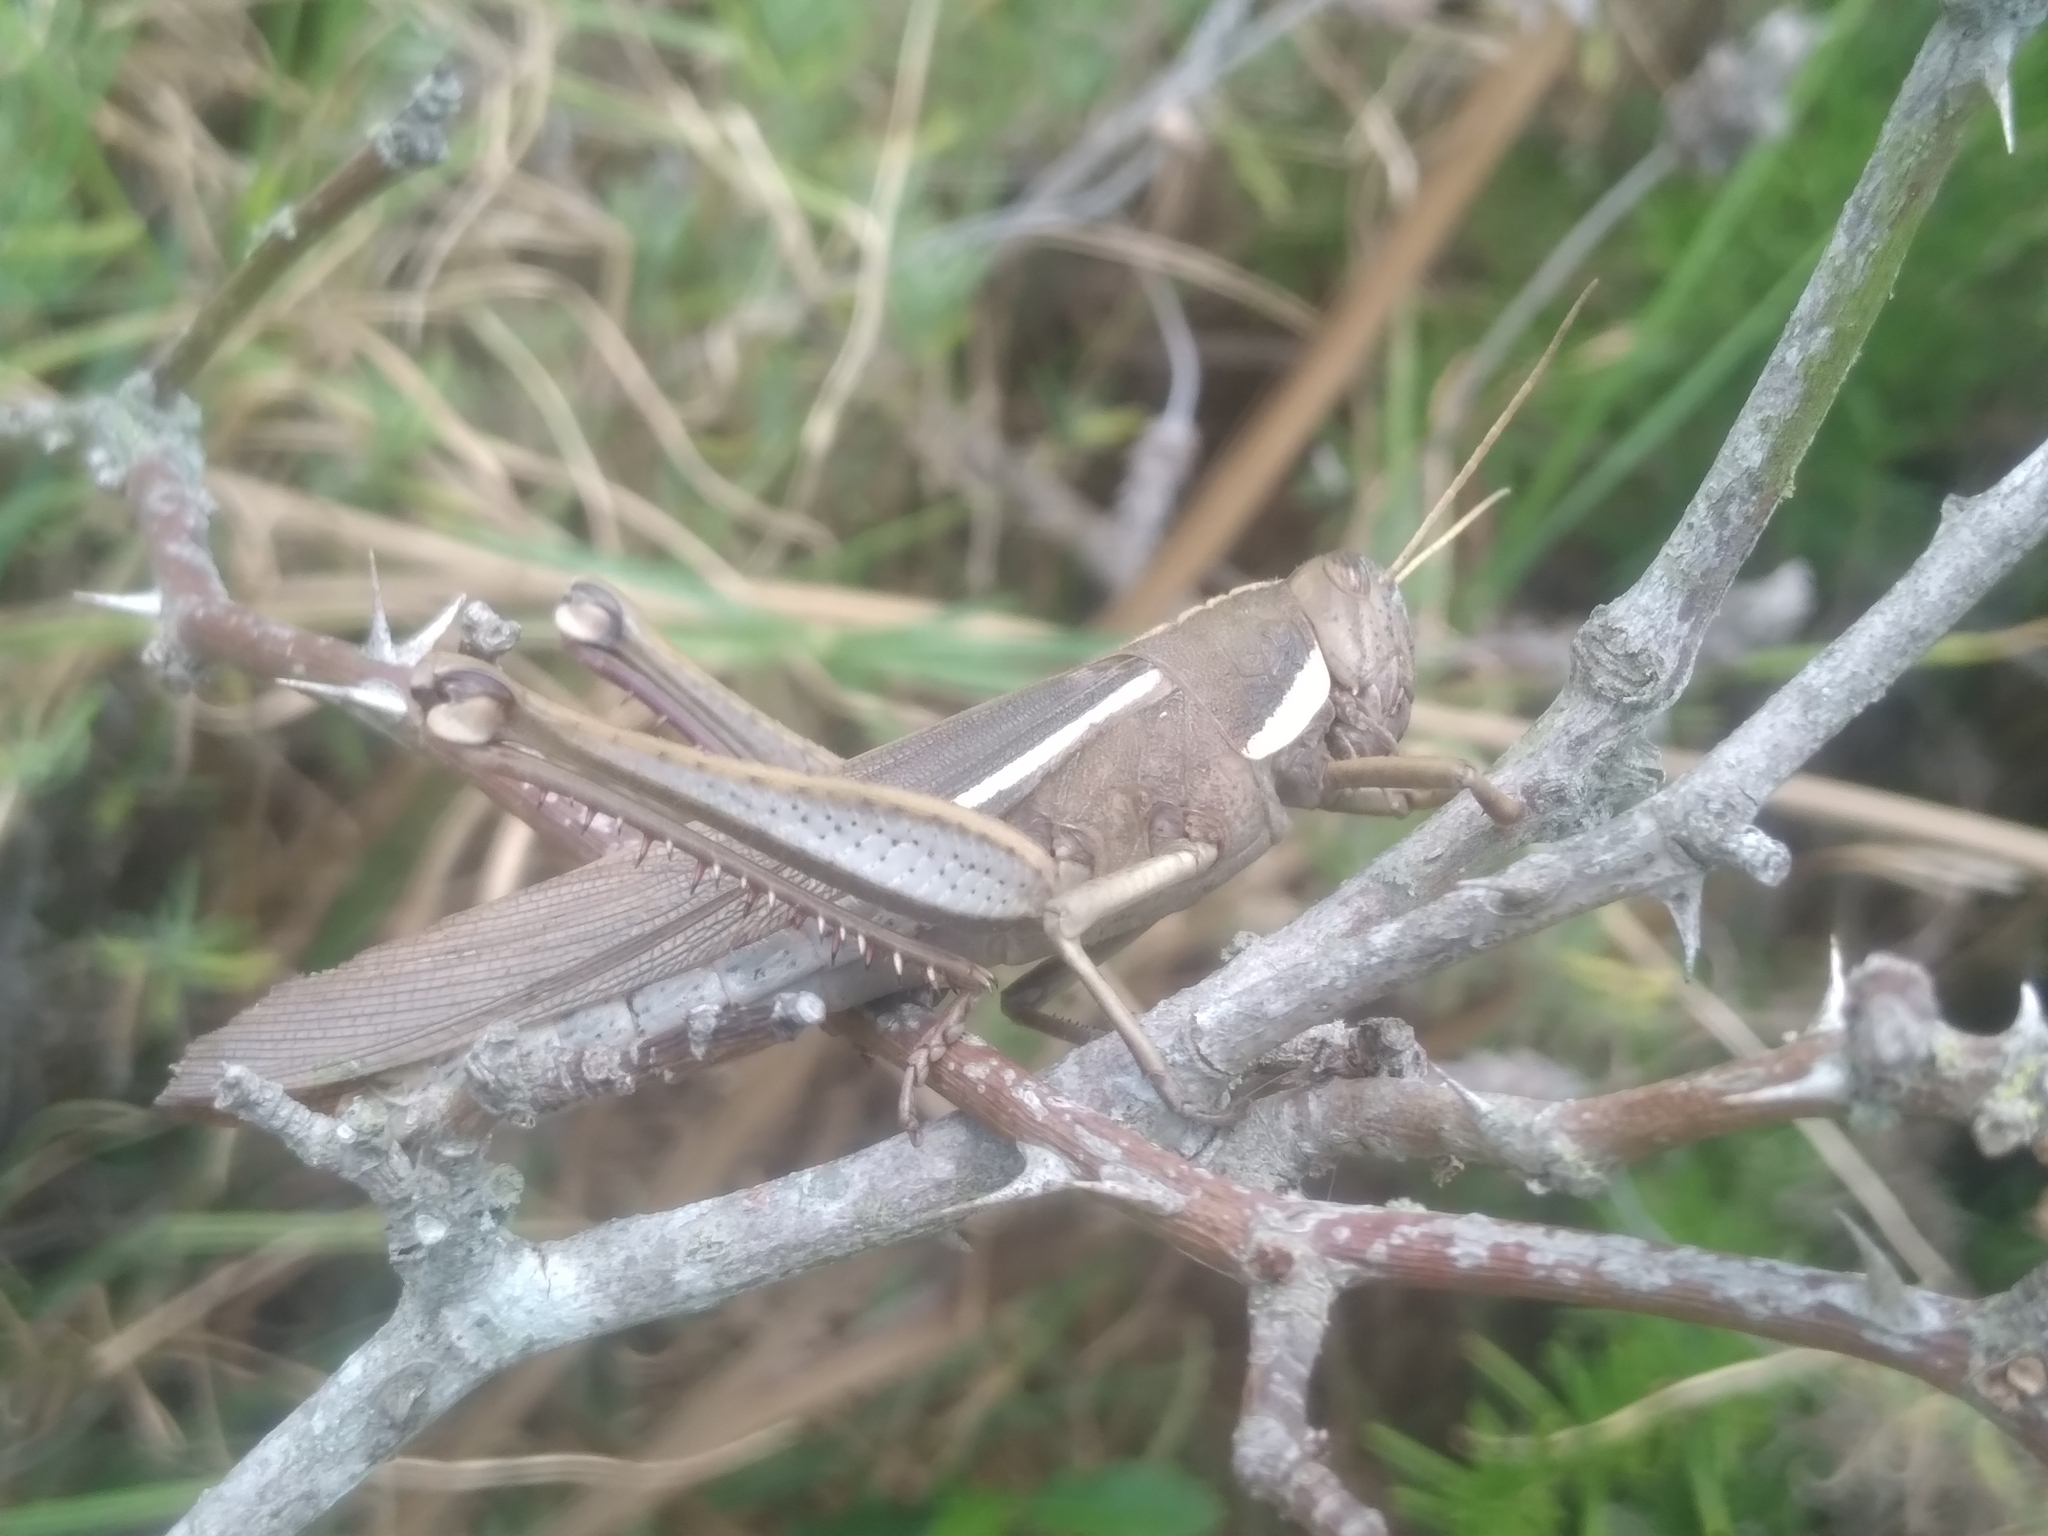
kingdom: Animalia
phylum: Arthropoda
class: Insecta
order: Orthoptera
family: Acrididae
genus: Schistocerca
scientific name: Schistocerca flavofasciata
